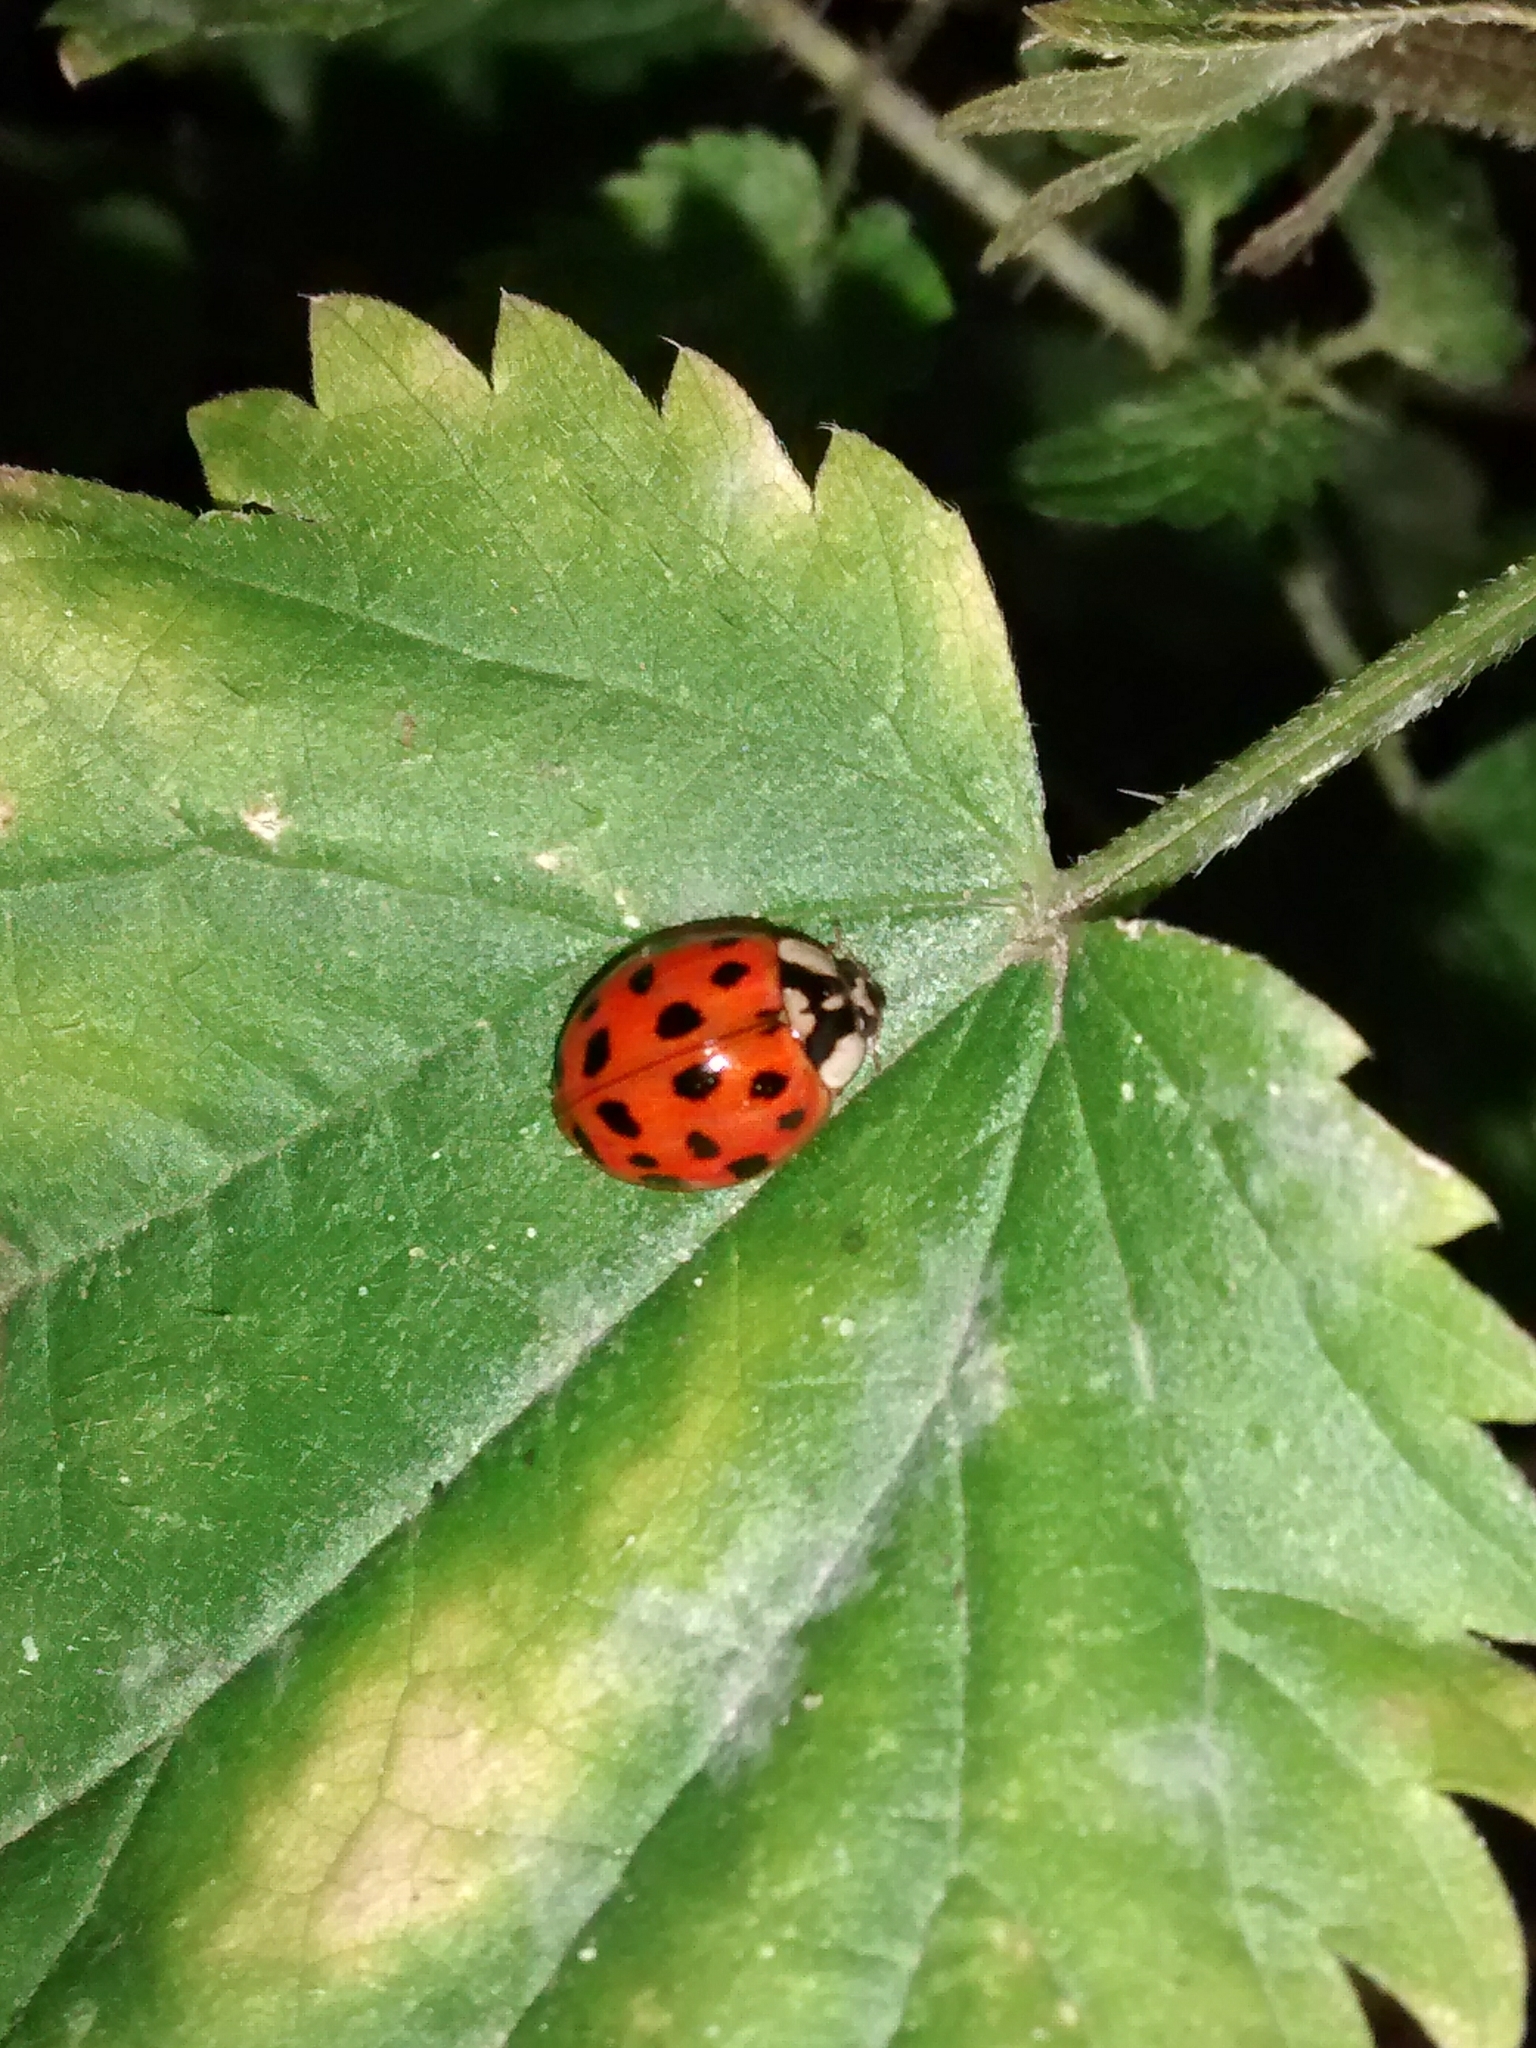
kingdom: Animalia
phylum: Arthropoda
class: Insecta
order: Coleoptera
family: Coccinellidae
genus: Harmonia
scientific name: Harmonia axyridis
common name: Harlequin ladybird
